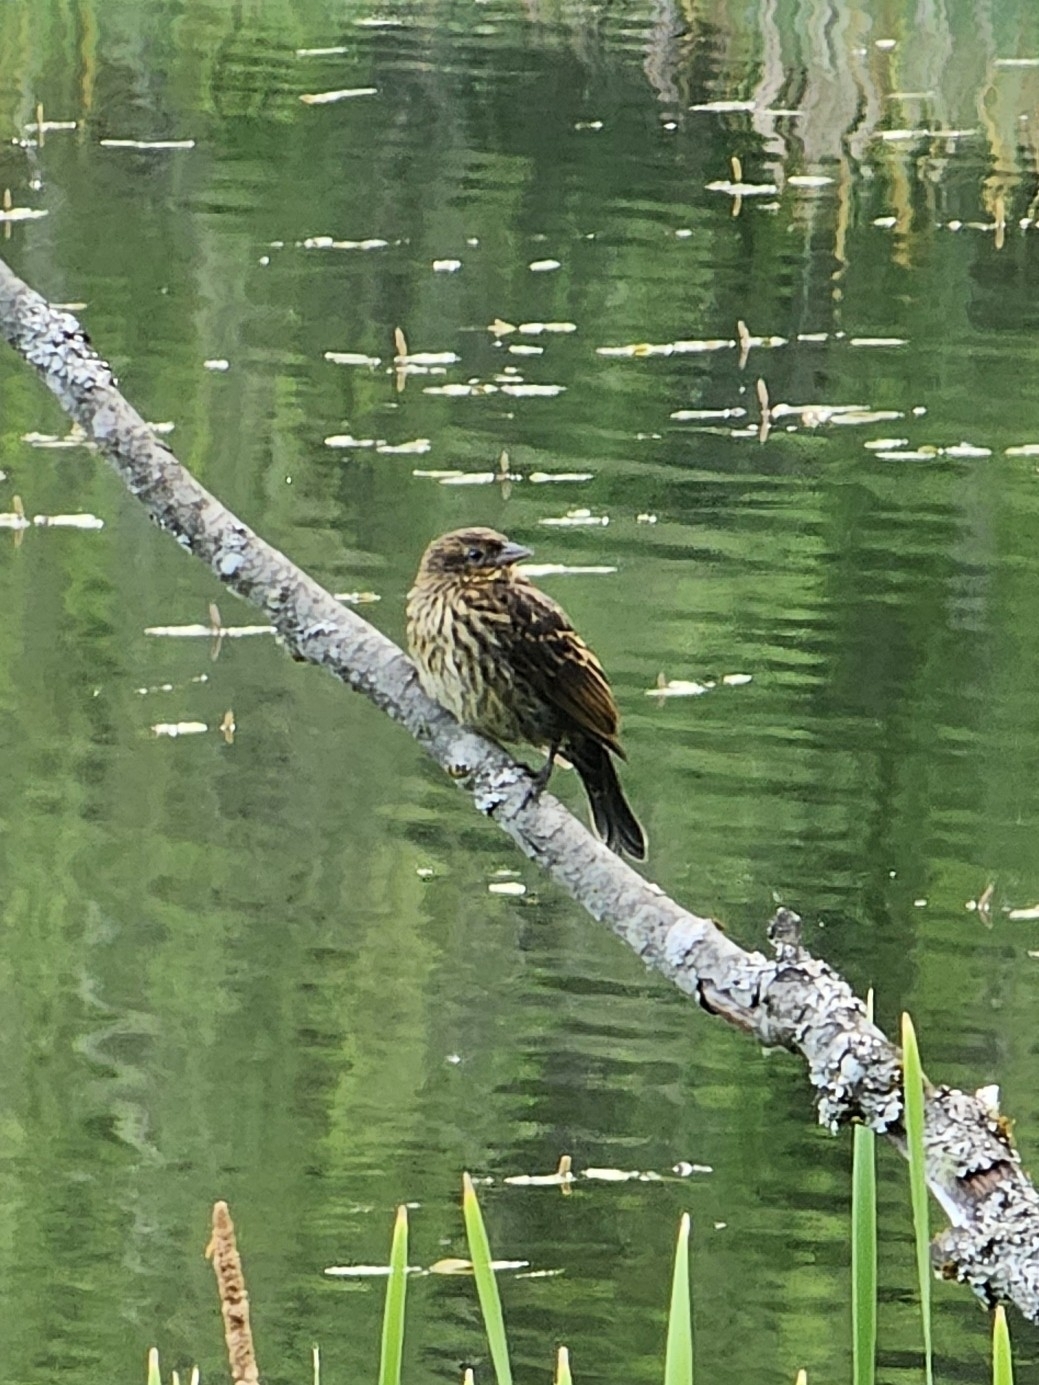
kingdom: Animalia
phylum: Chordata
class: Aves
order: Passeriformes
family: Icteridae
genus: Agelaius
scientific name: Agelaius phoeniceus
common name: Red-winged blackbird
